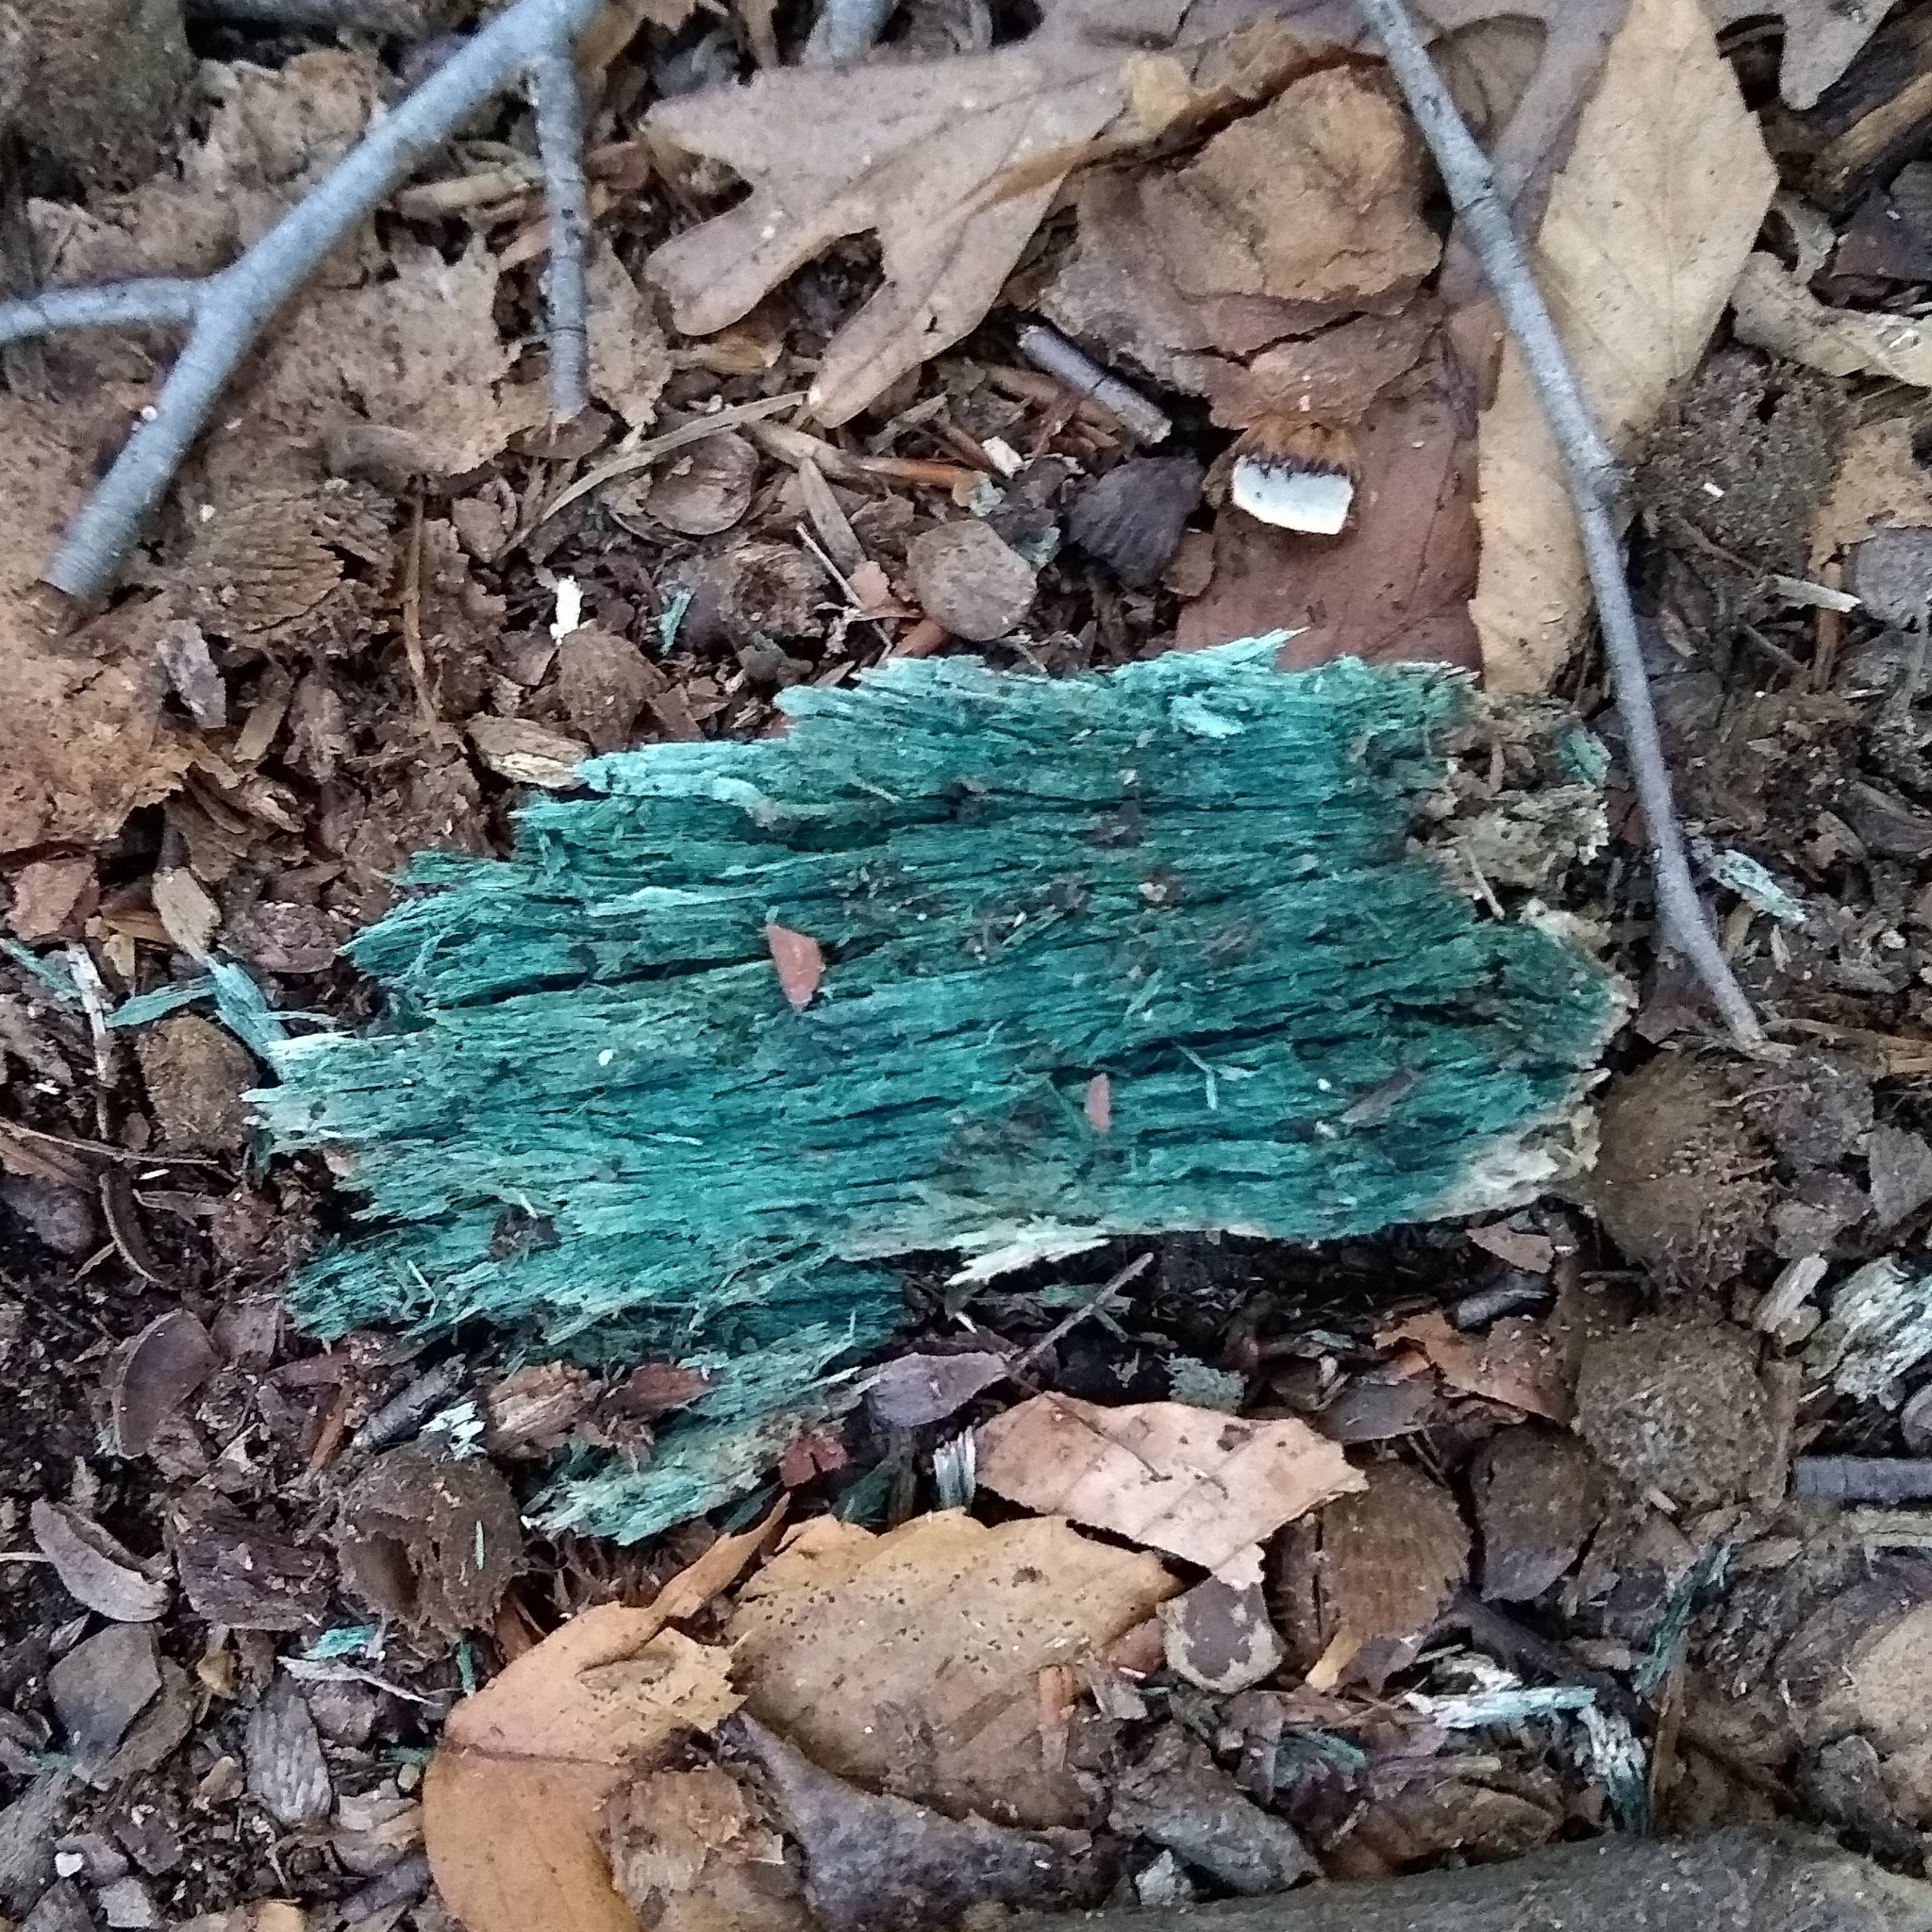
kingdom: Fungi
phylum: Ascomycota
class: Leotiomycetes
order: Helotiales
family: Chlorociboriaceae
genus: Chlorociboria
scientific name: Chlorociboria
